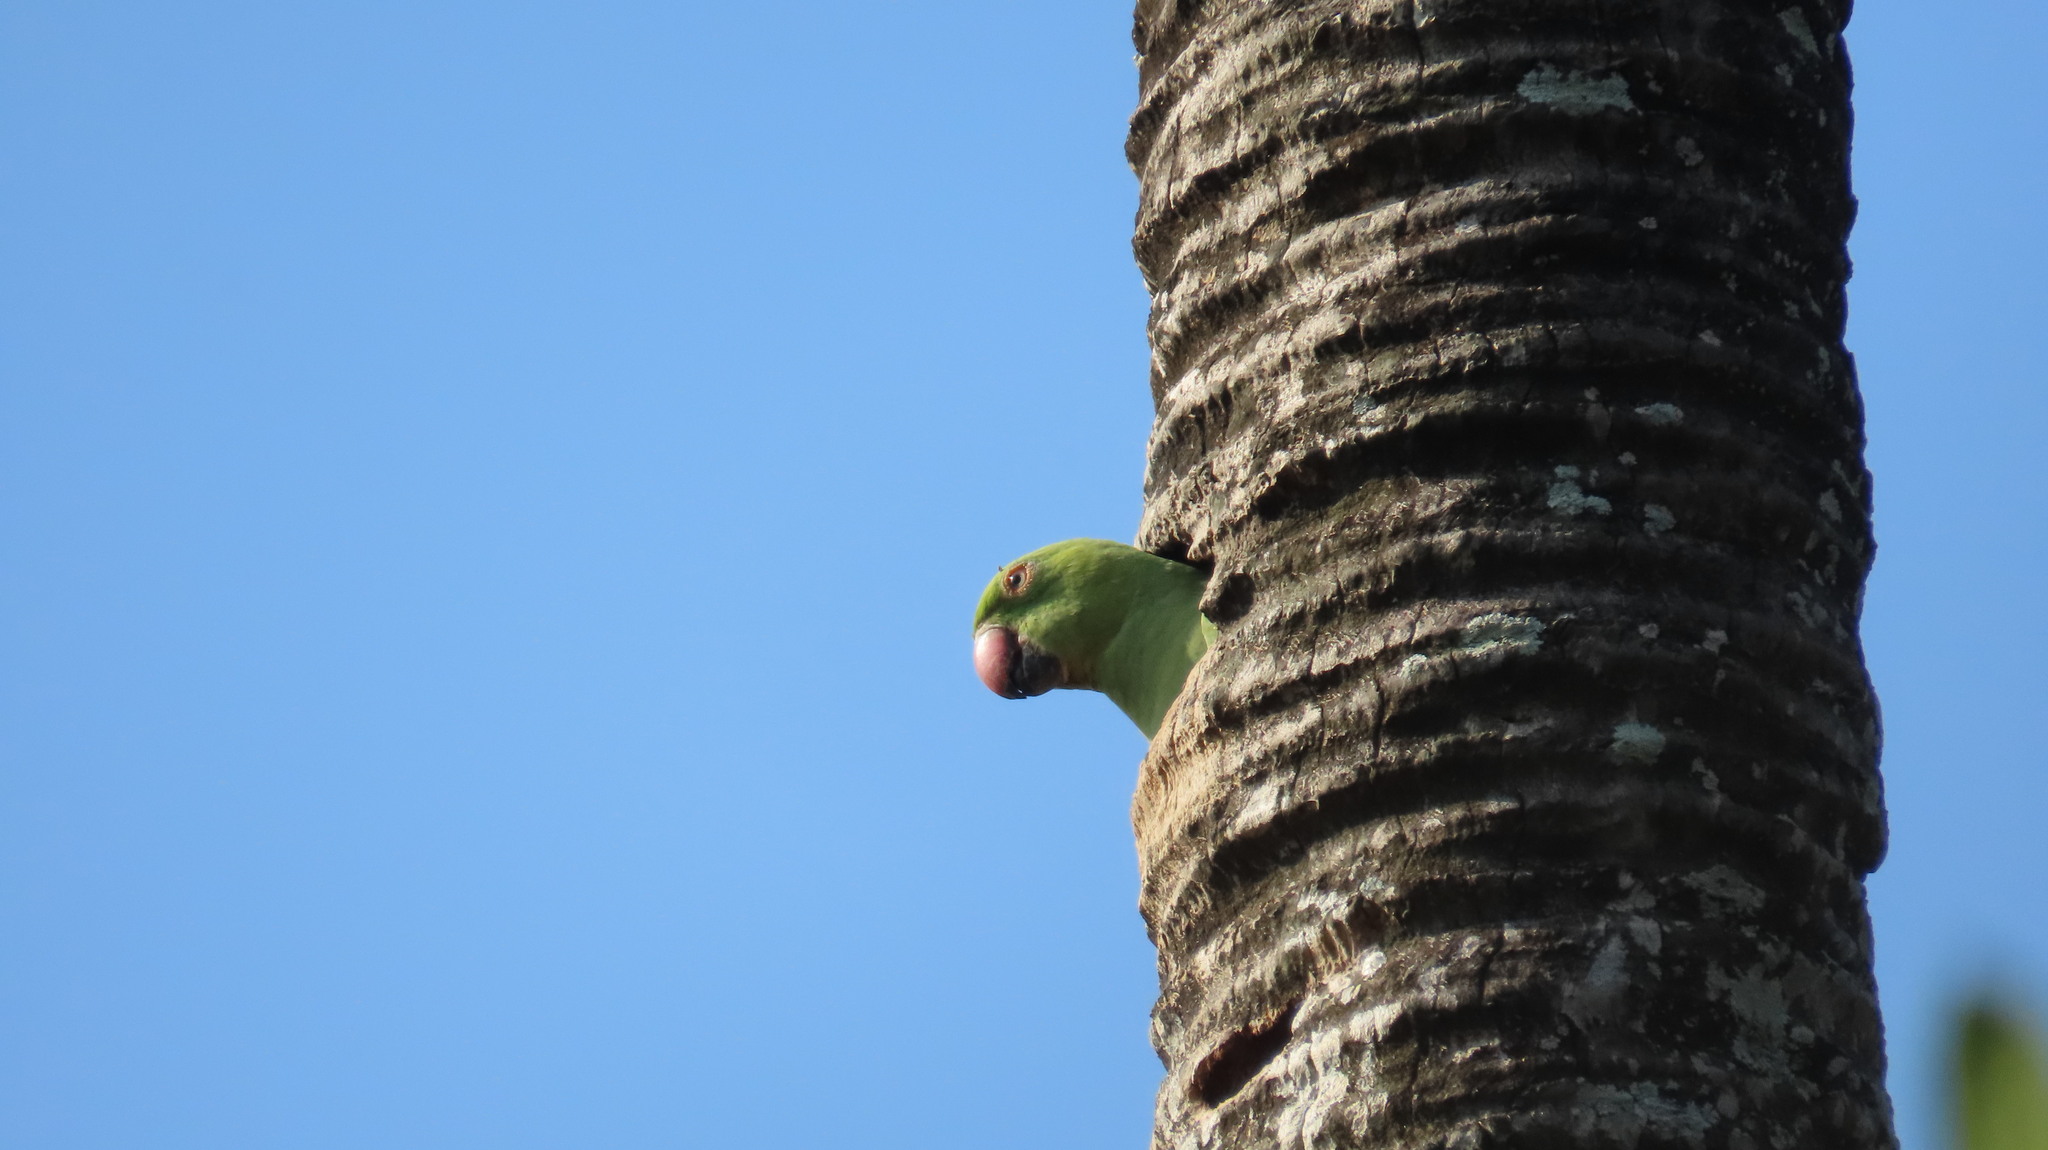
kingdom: Animalia
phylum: Chordata
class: Aves
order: Psittaciformes
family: Psittacidae
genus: Psittacula
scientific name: Psittacula krameri
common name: Rose-ringed parakeet
